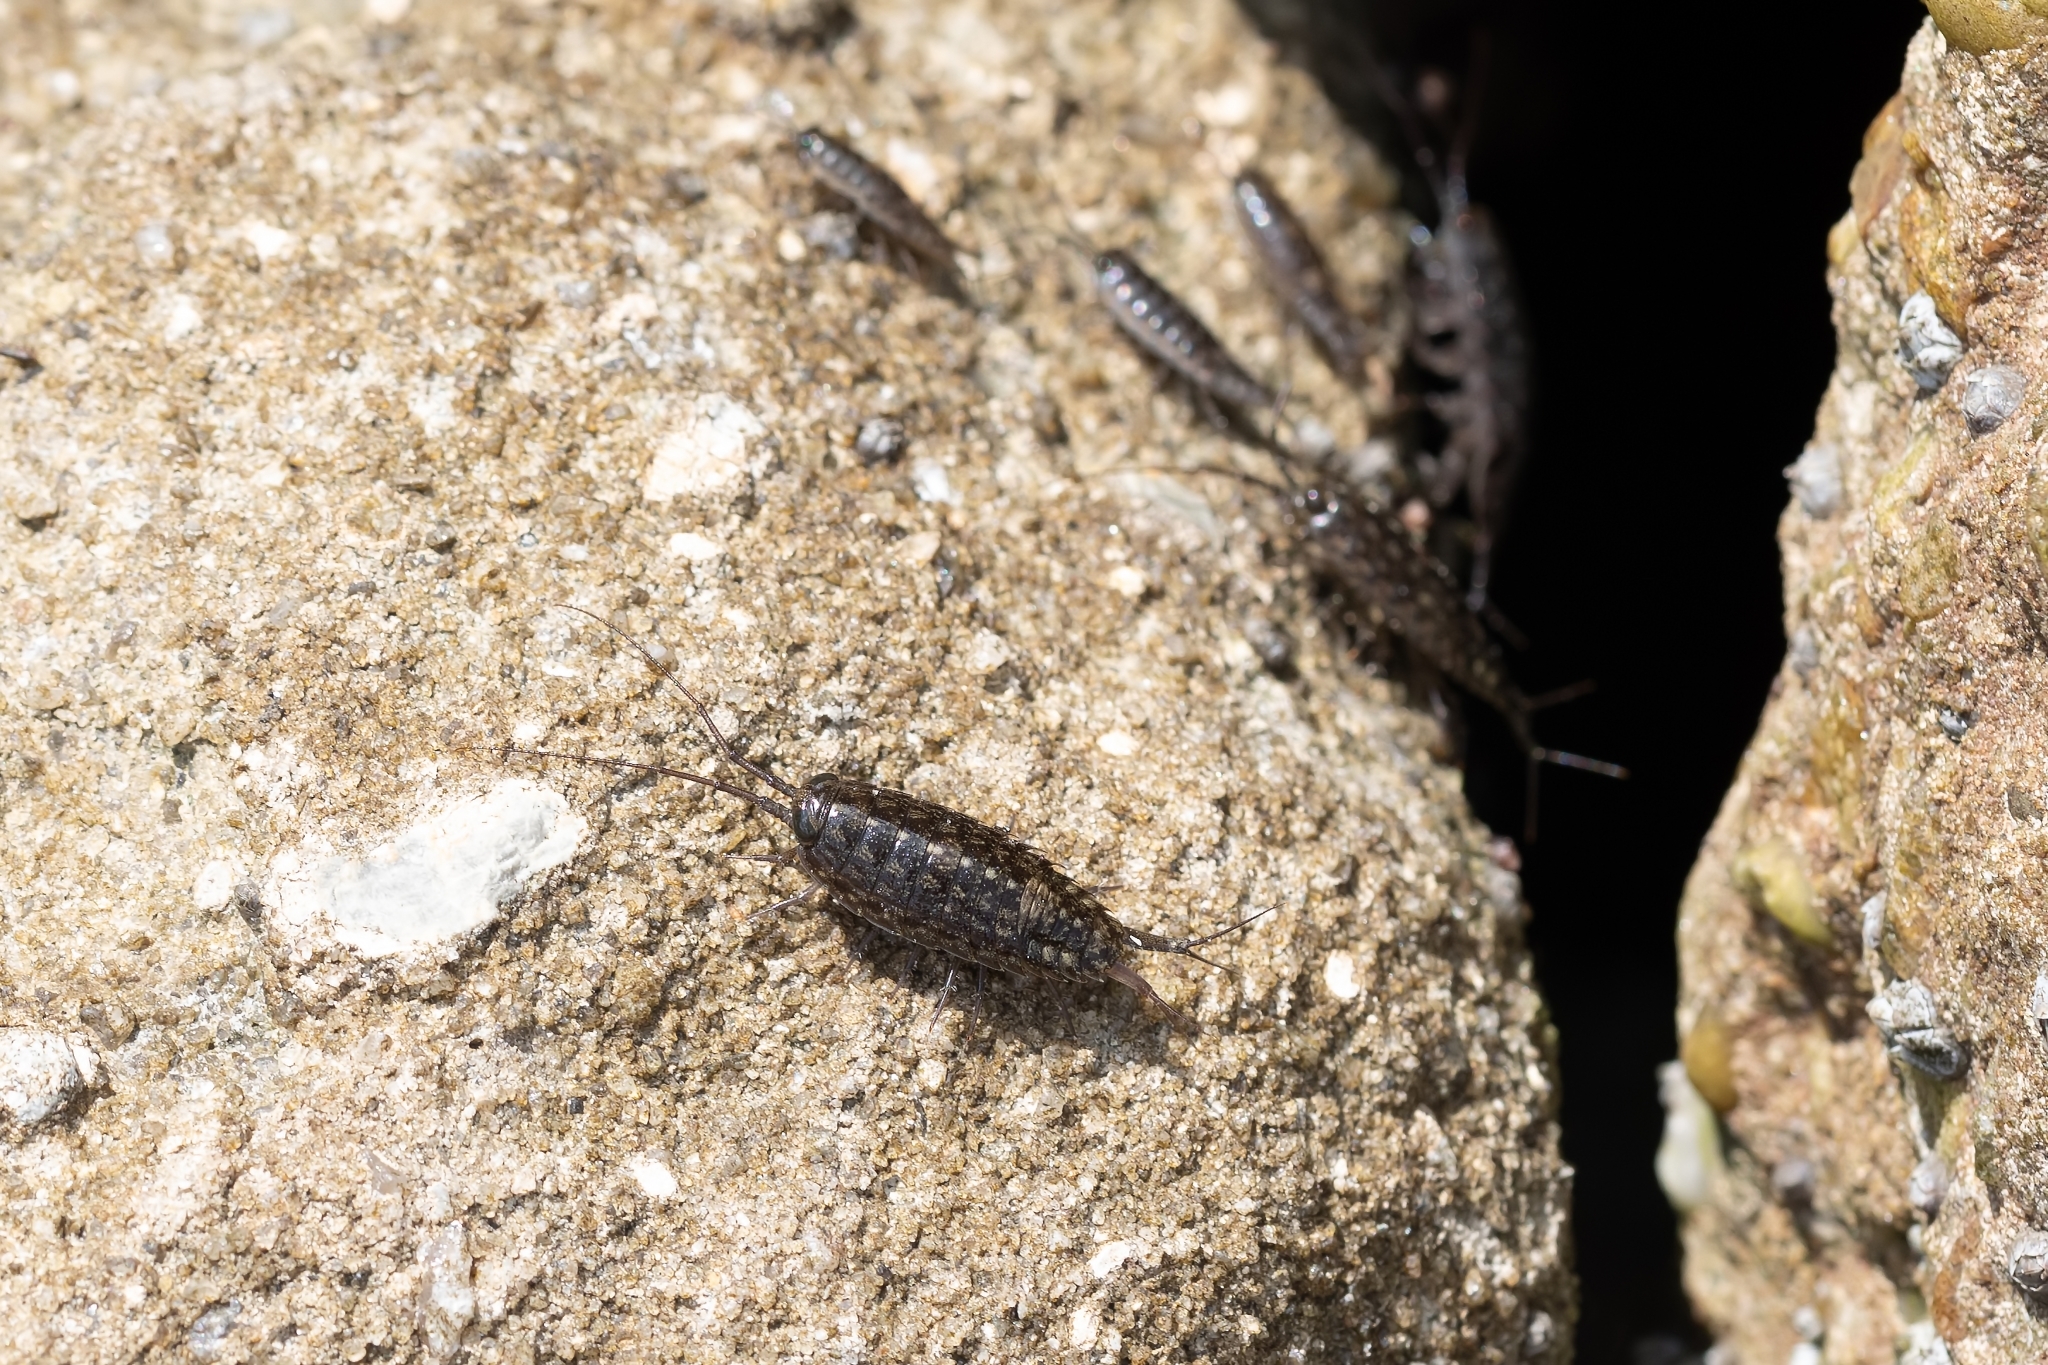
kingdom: Animalia
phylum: Arthropoda
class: Malacostraca
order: Isopoda
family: Ligiidae
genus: Ligia
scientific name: Ligia exotica
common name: Wharf roach
